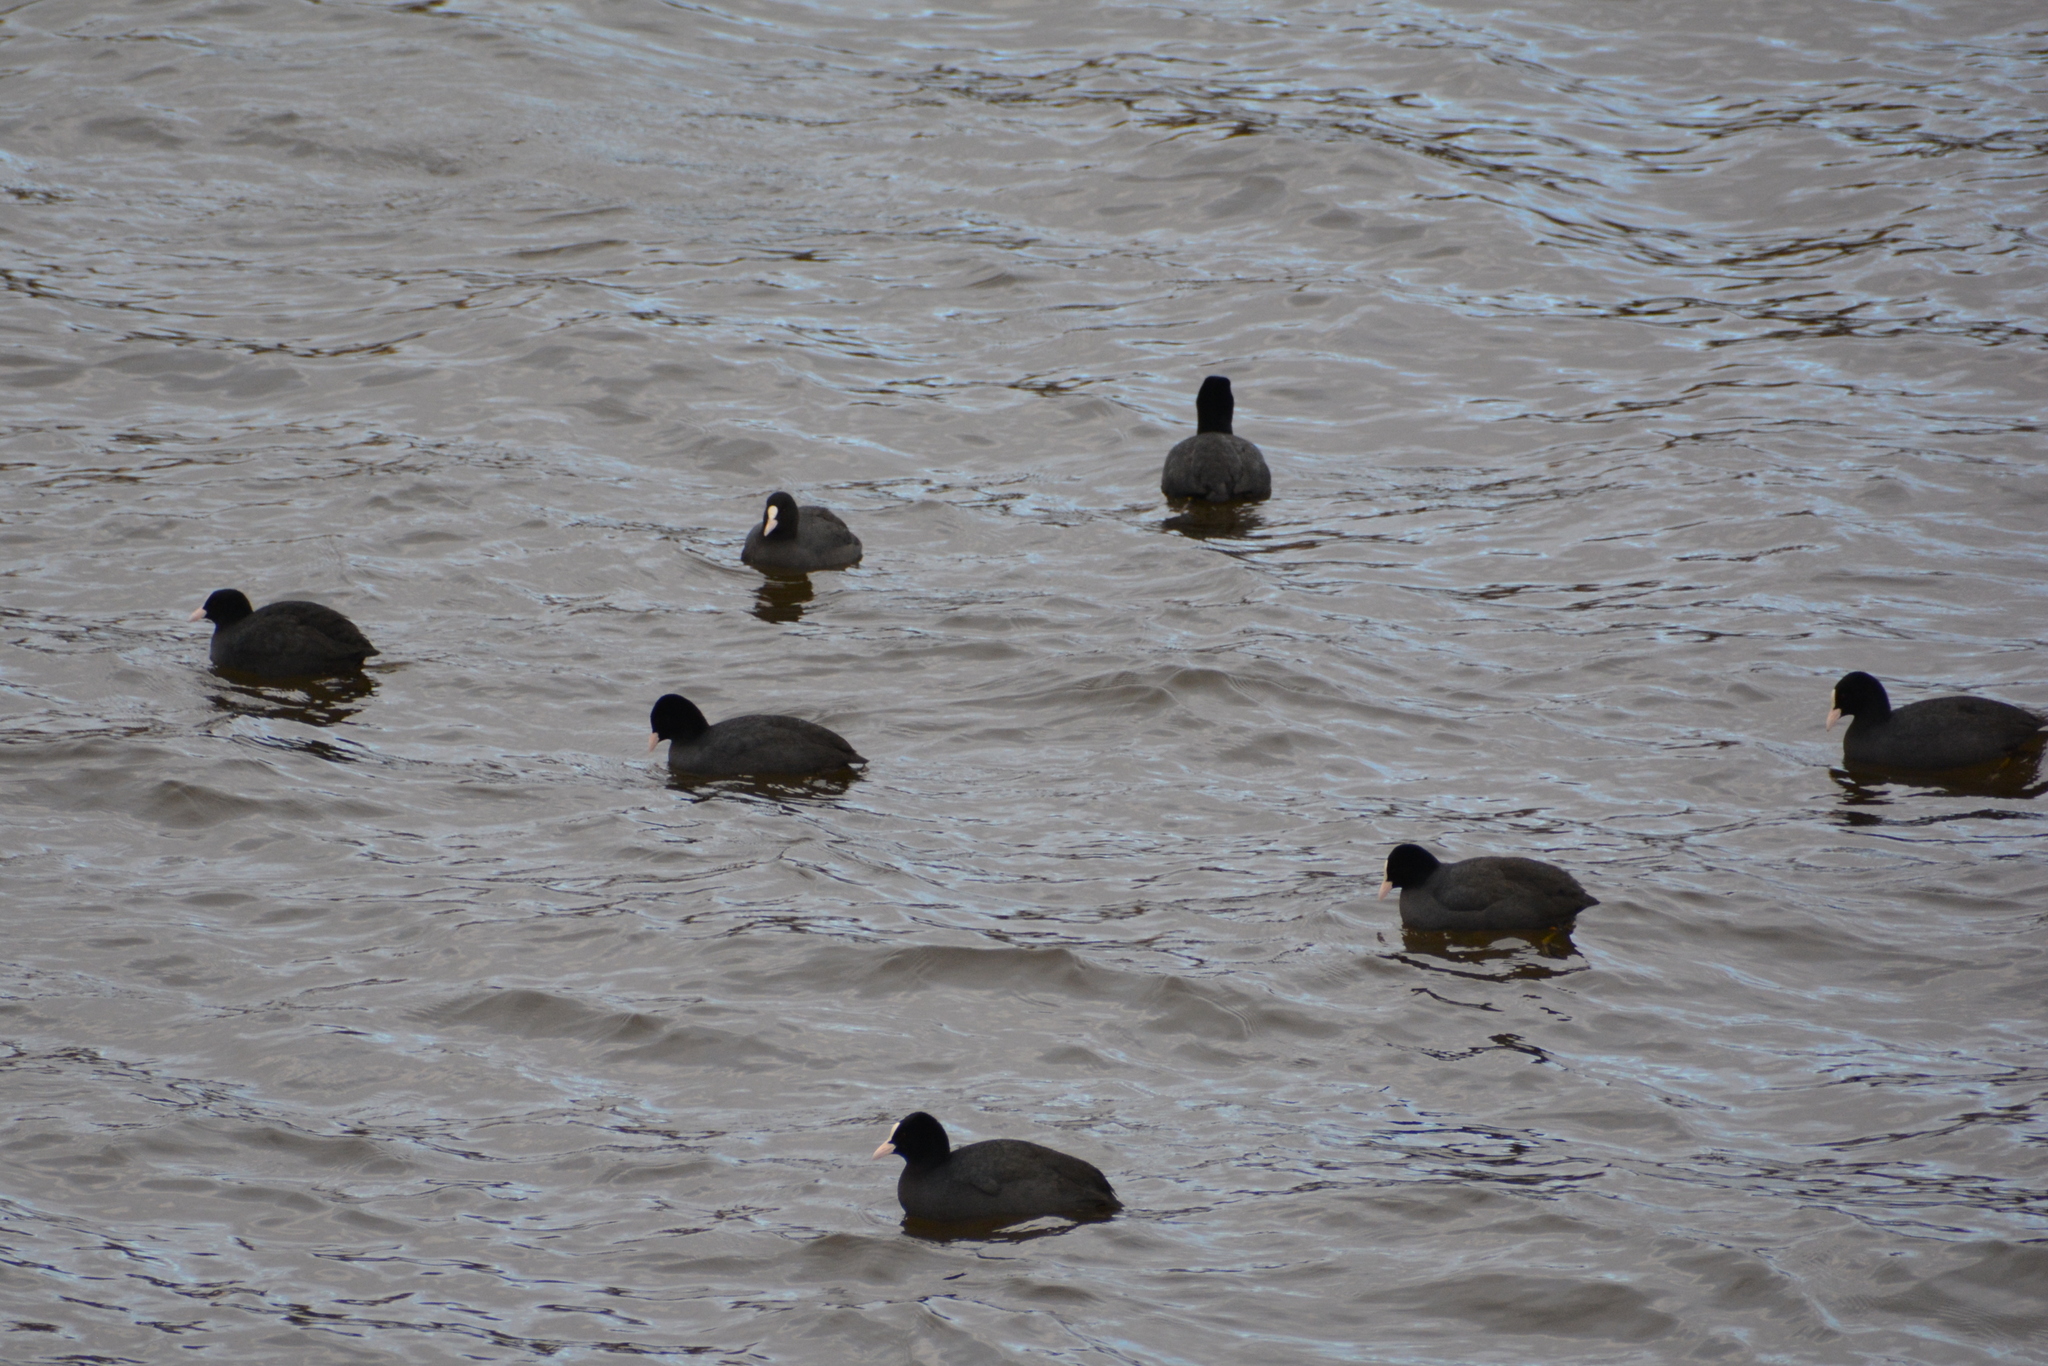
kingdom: Animalia
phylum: Chordata
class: Aves
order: Gruiformes
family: Rallidae
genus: Fulica
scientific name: Fulica atra
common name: Eurasian coot
